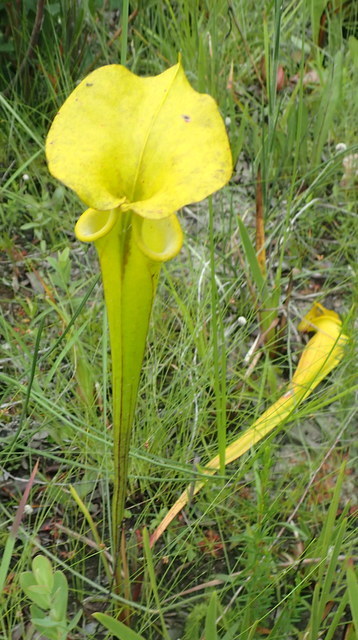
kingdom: Plantae
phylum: Tracheophyta
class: Magnoliopsida
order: Ericales
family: Sarraceniaceae
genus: Sarracenia
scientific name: Sarracenia flava
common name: Trumpets
